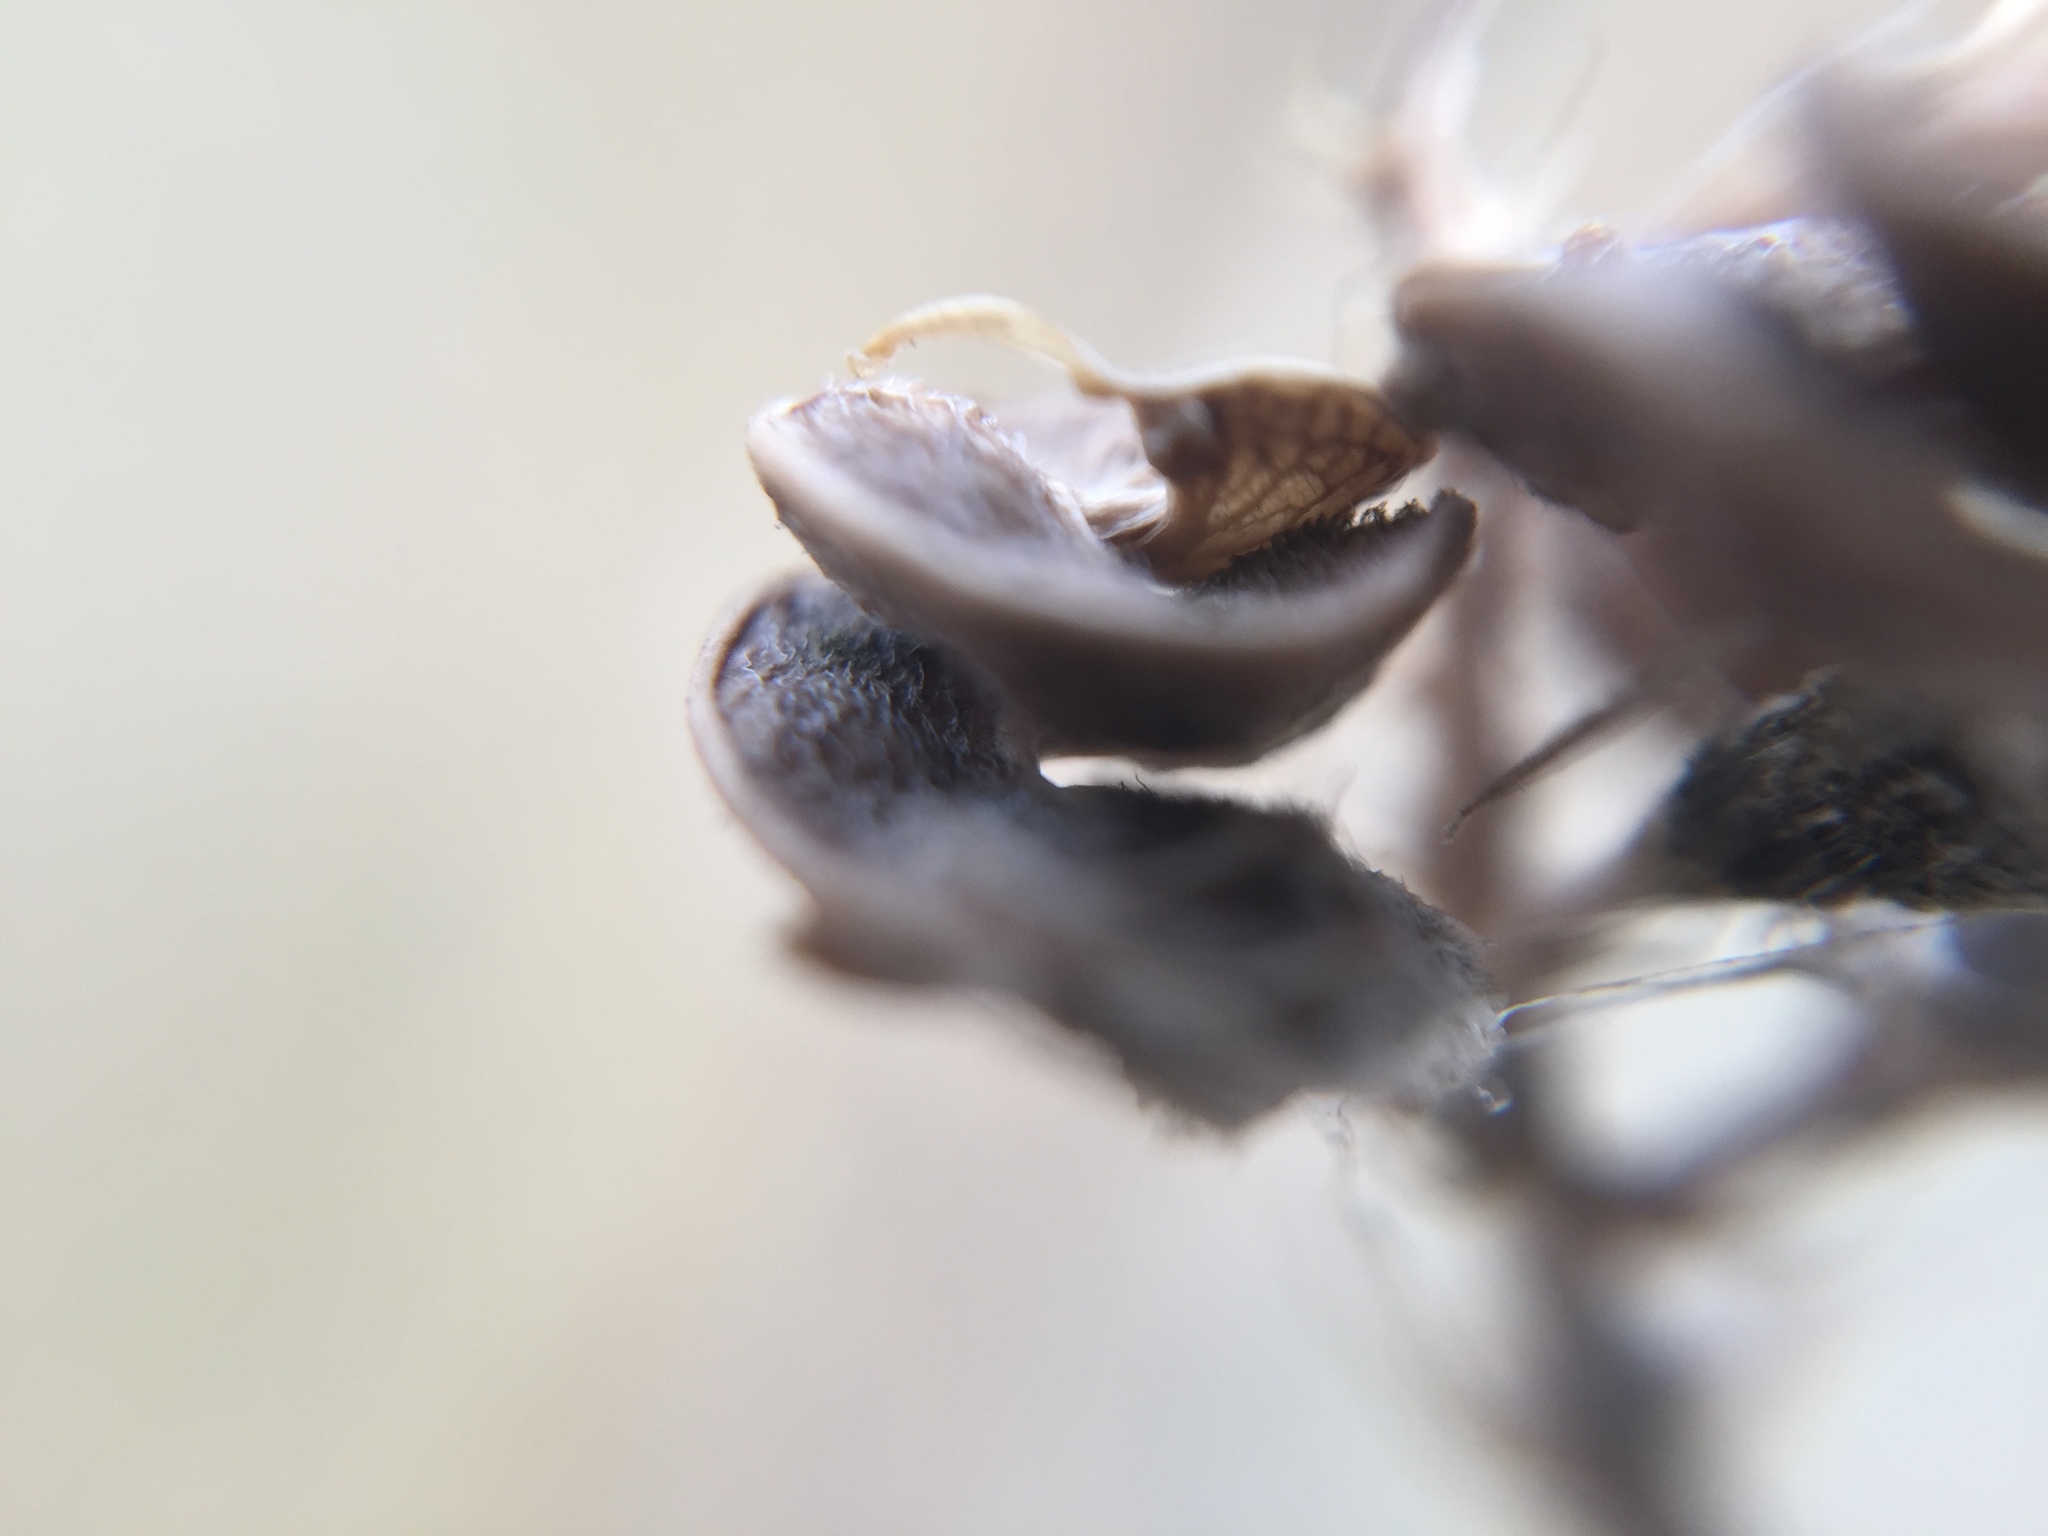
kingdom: Plantae
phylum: Tracheophyta
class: Magnoliopsida
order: Fabales
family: Fabaceae
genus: Medicago
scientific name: Medicago sativa
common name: Alfalfa
